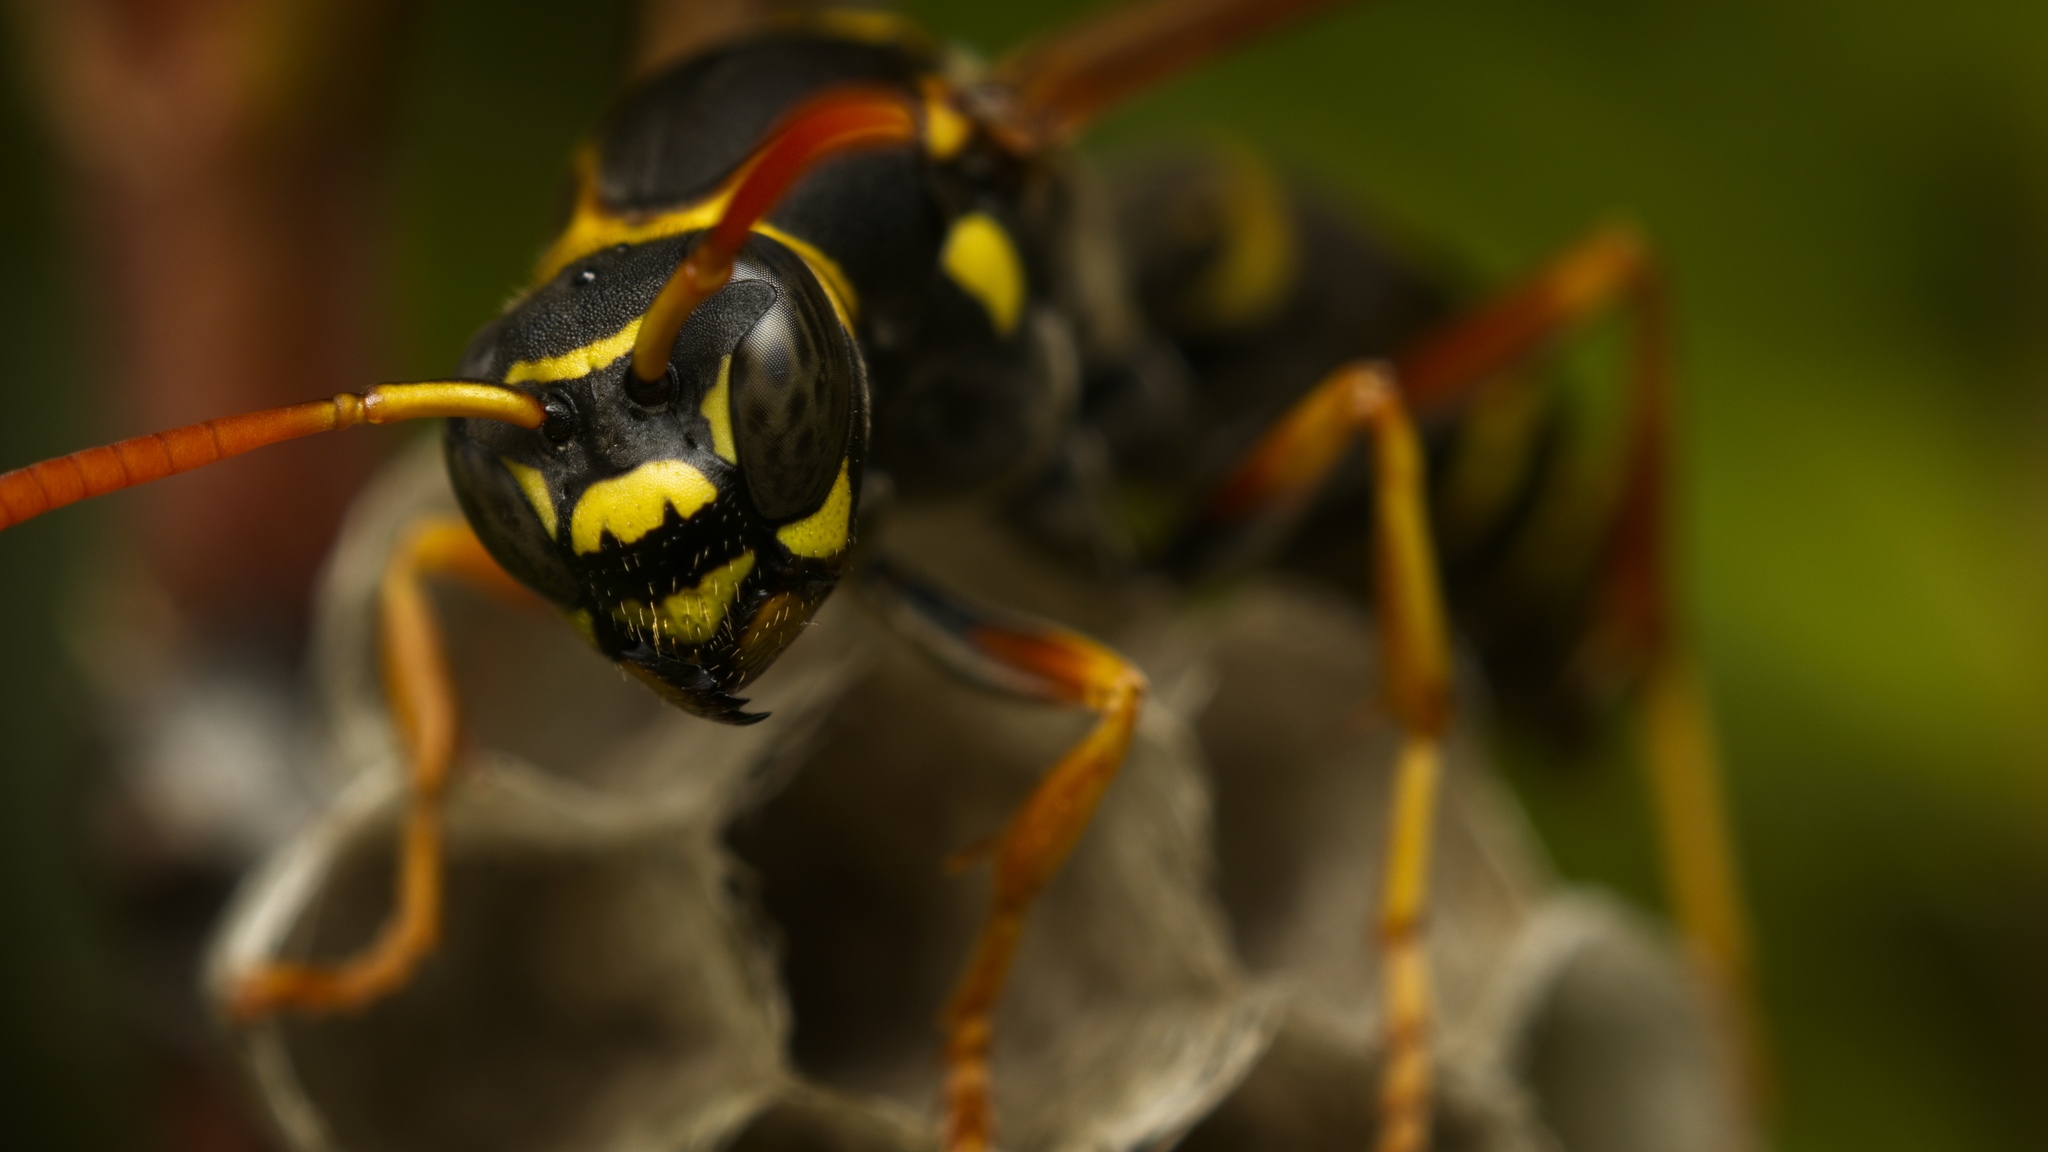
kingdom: Animalia
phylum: Arthropoda
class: Insecta
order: Hymenoptera
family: Eumenidae
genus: Polistes
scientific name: Polistes chinensis
